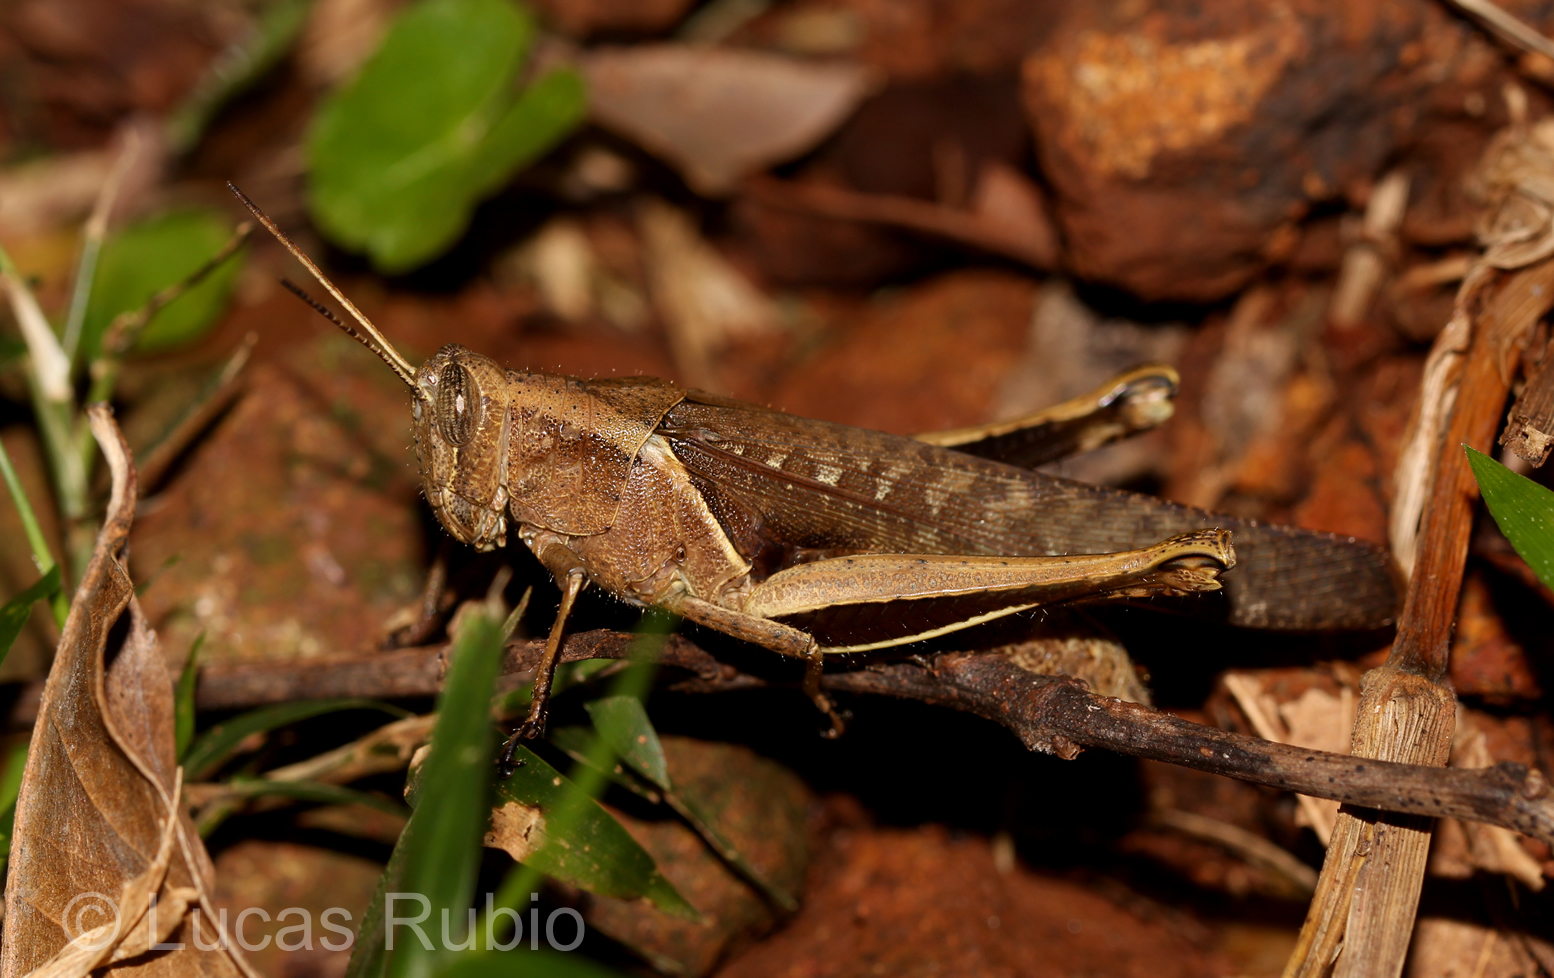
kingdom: Animalia
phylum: Arthropoda
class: Insecta
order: Orthoptera
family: Acrididae
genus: Abracris
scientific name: Abracris flavolineata
